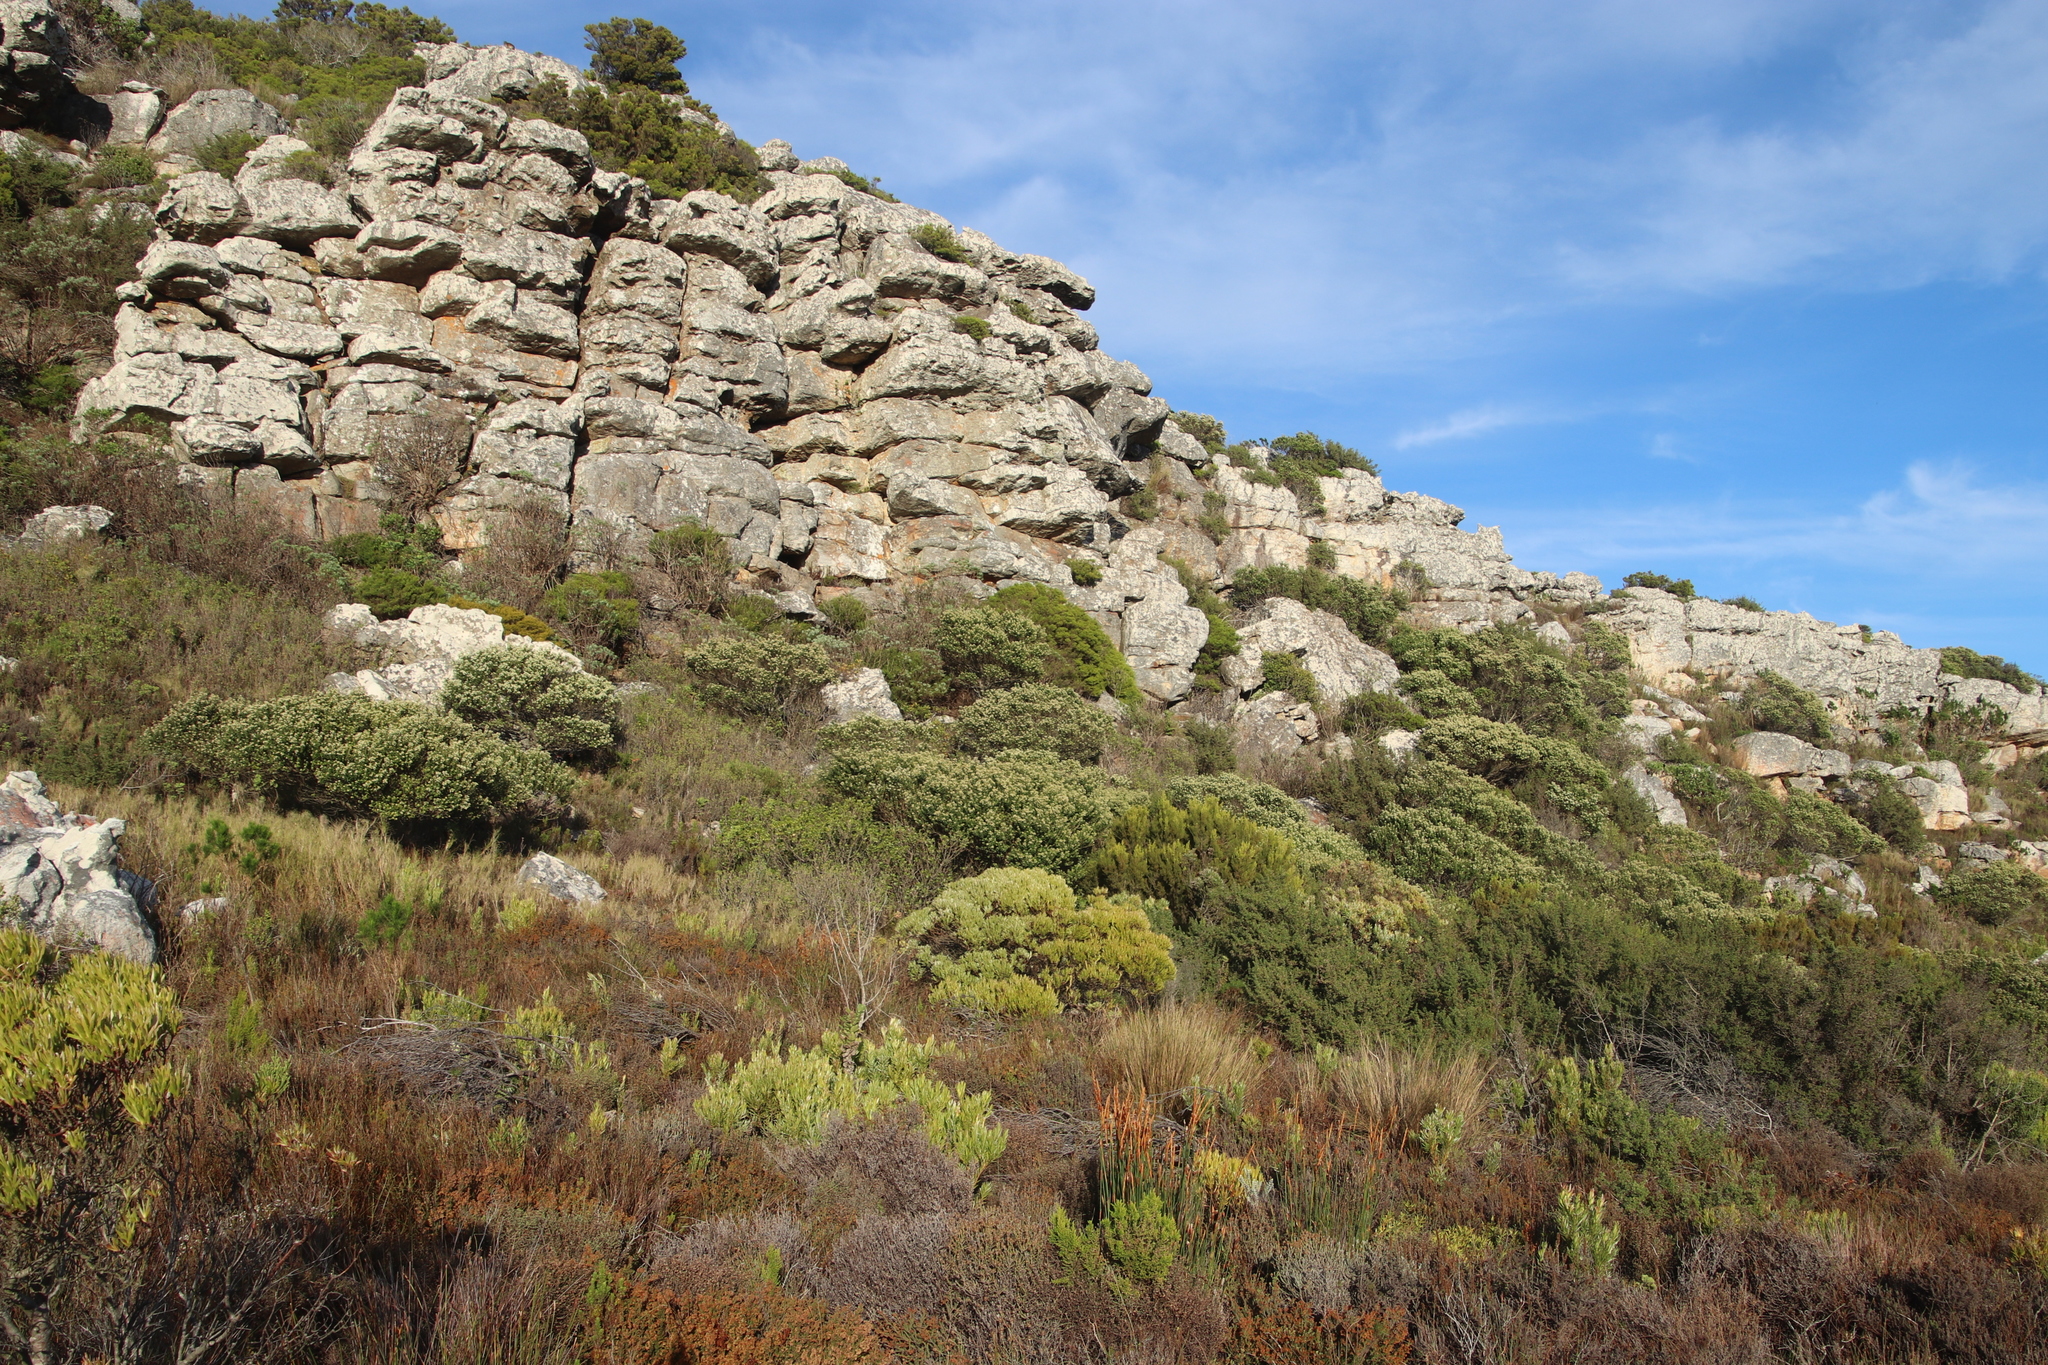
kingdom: Plantae
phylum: Tracheophyta
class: Magnoliopsida
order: Rosales
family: Rhamnaceae
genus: Phylica
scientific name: Phylica buxifolia
